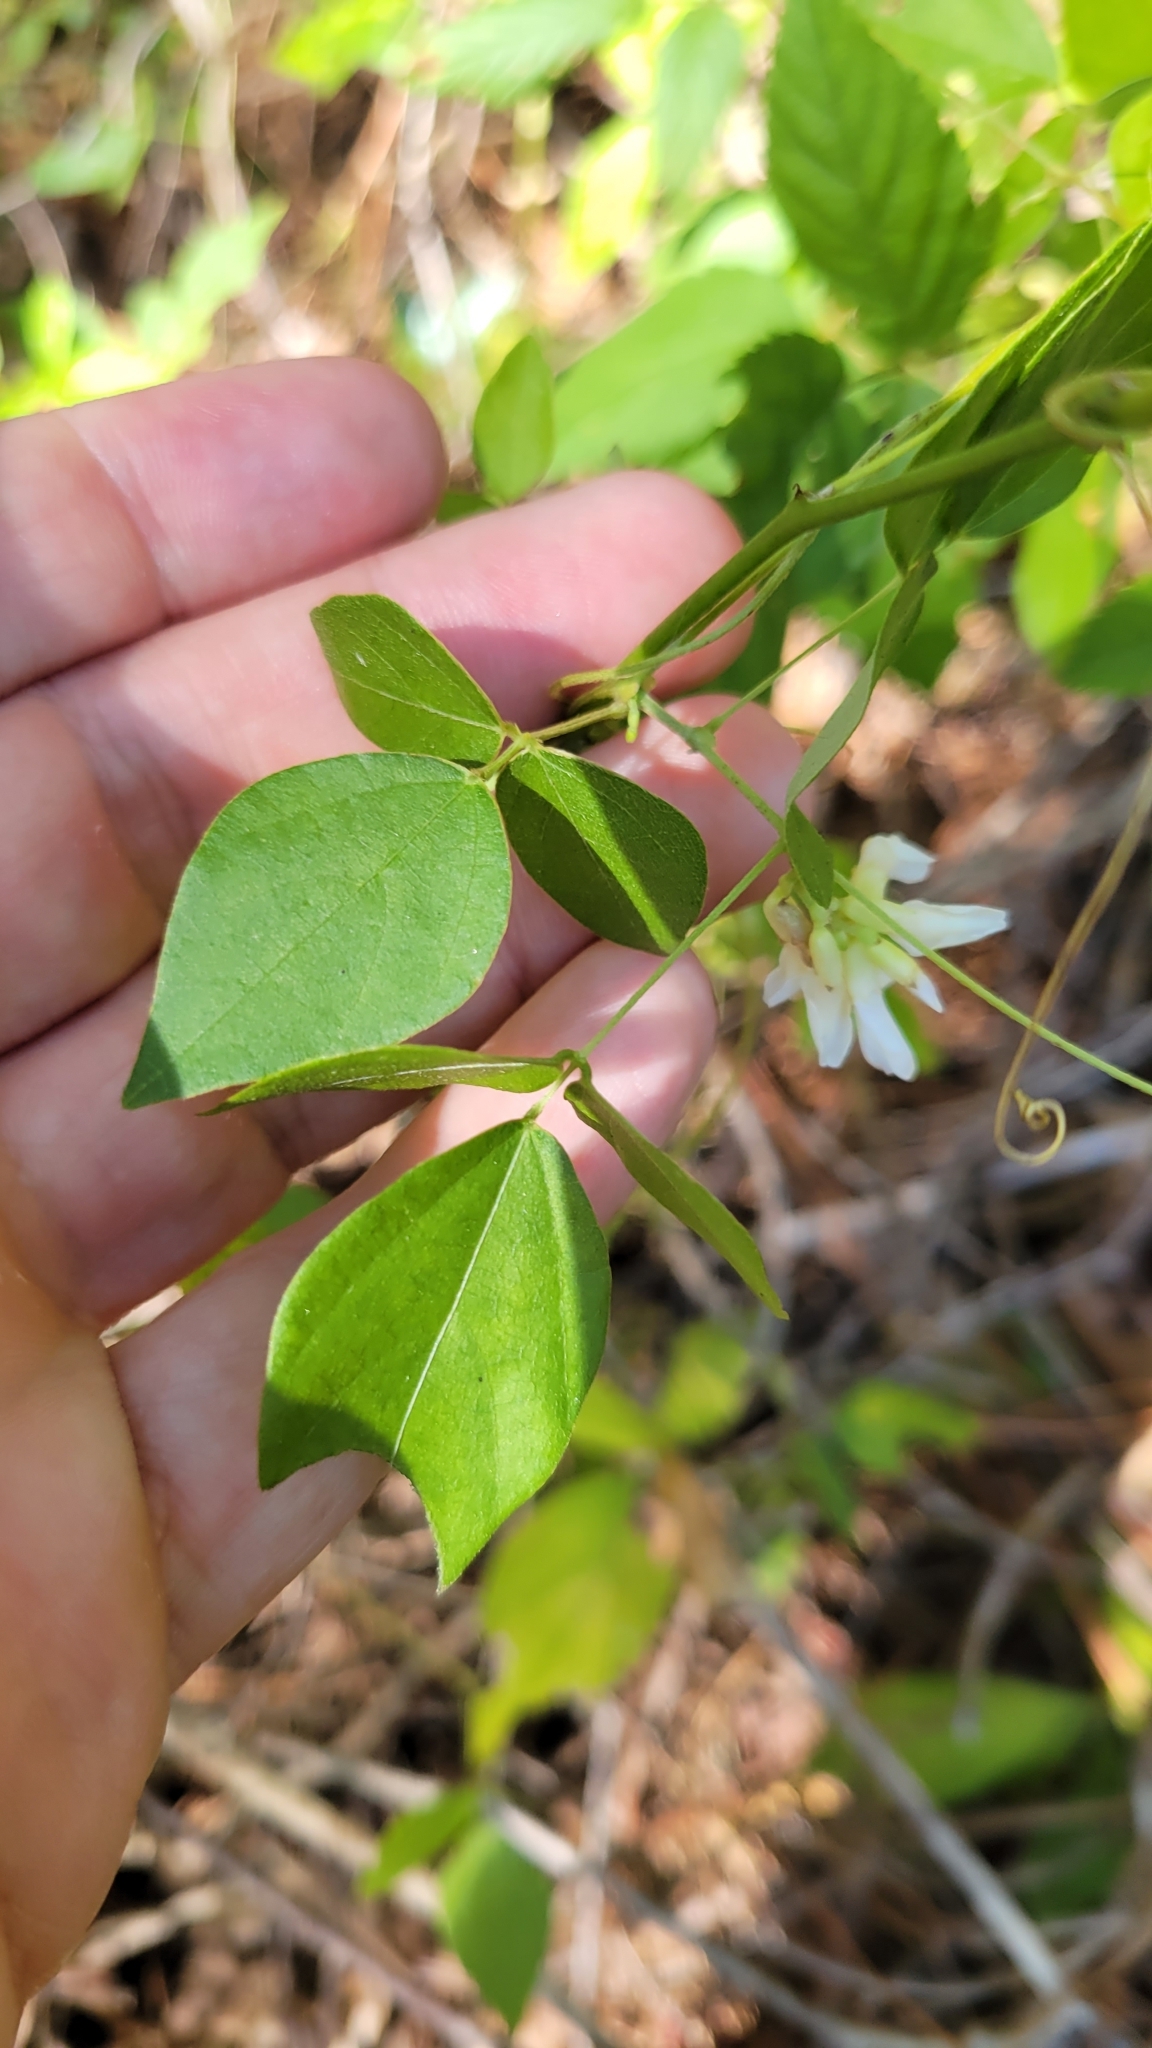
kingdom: Plantae
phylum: Tracheophyta
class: Magnoliopsida
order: Fabales
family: Fabaceae
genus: Amphicarpaea
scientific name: Amphicarpaea bracteata
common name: American hog peanut
